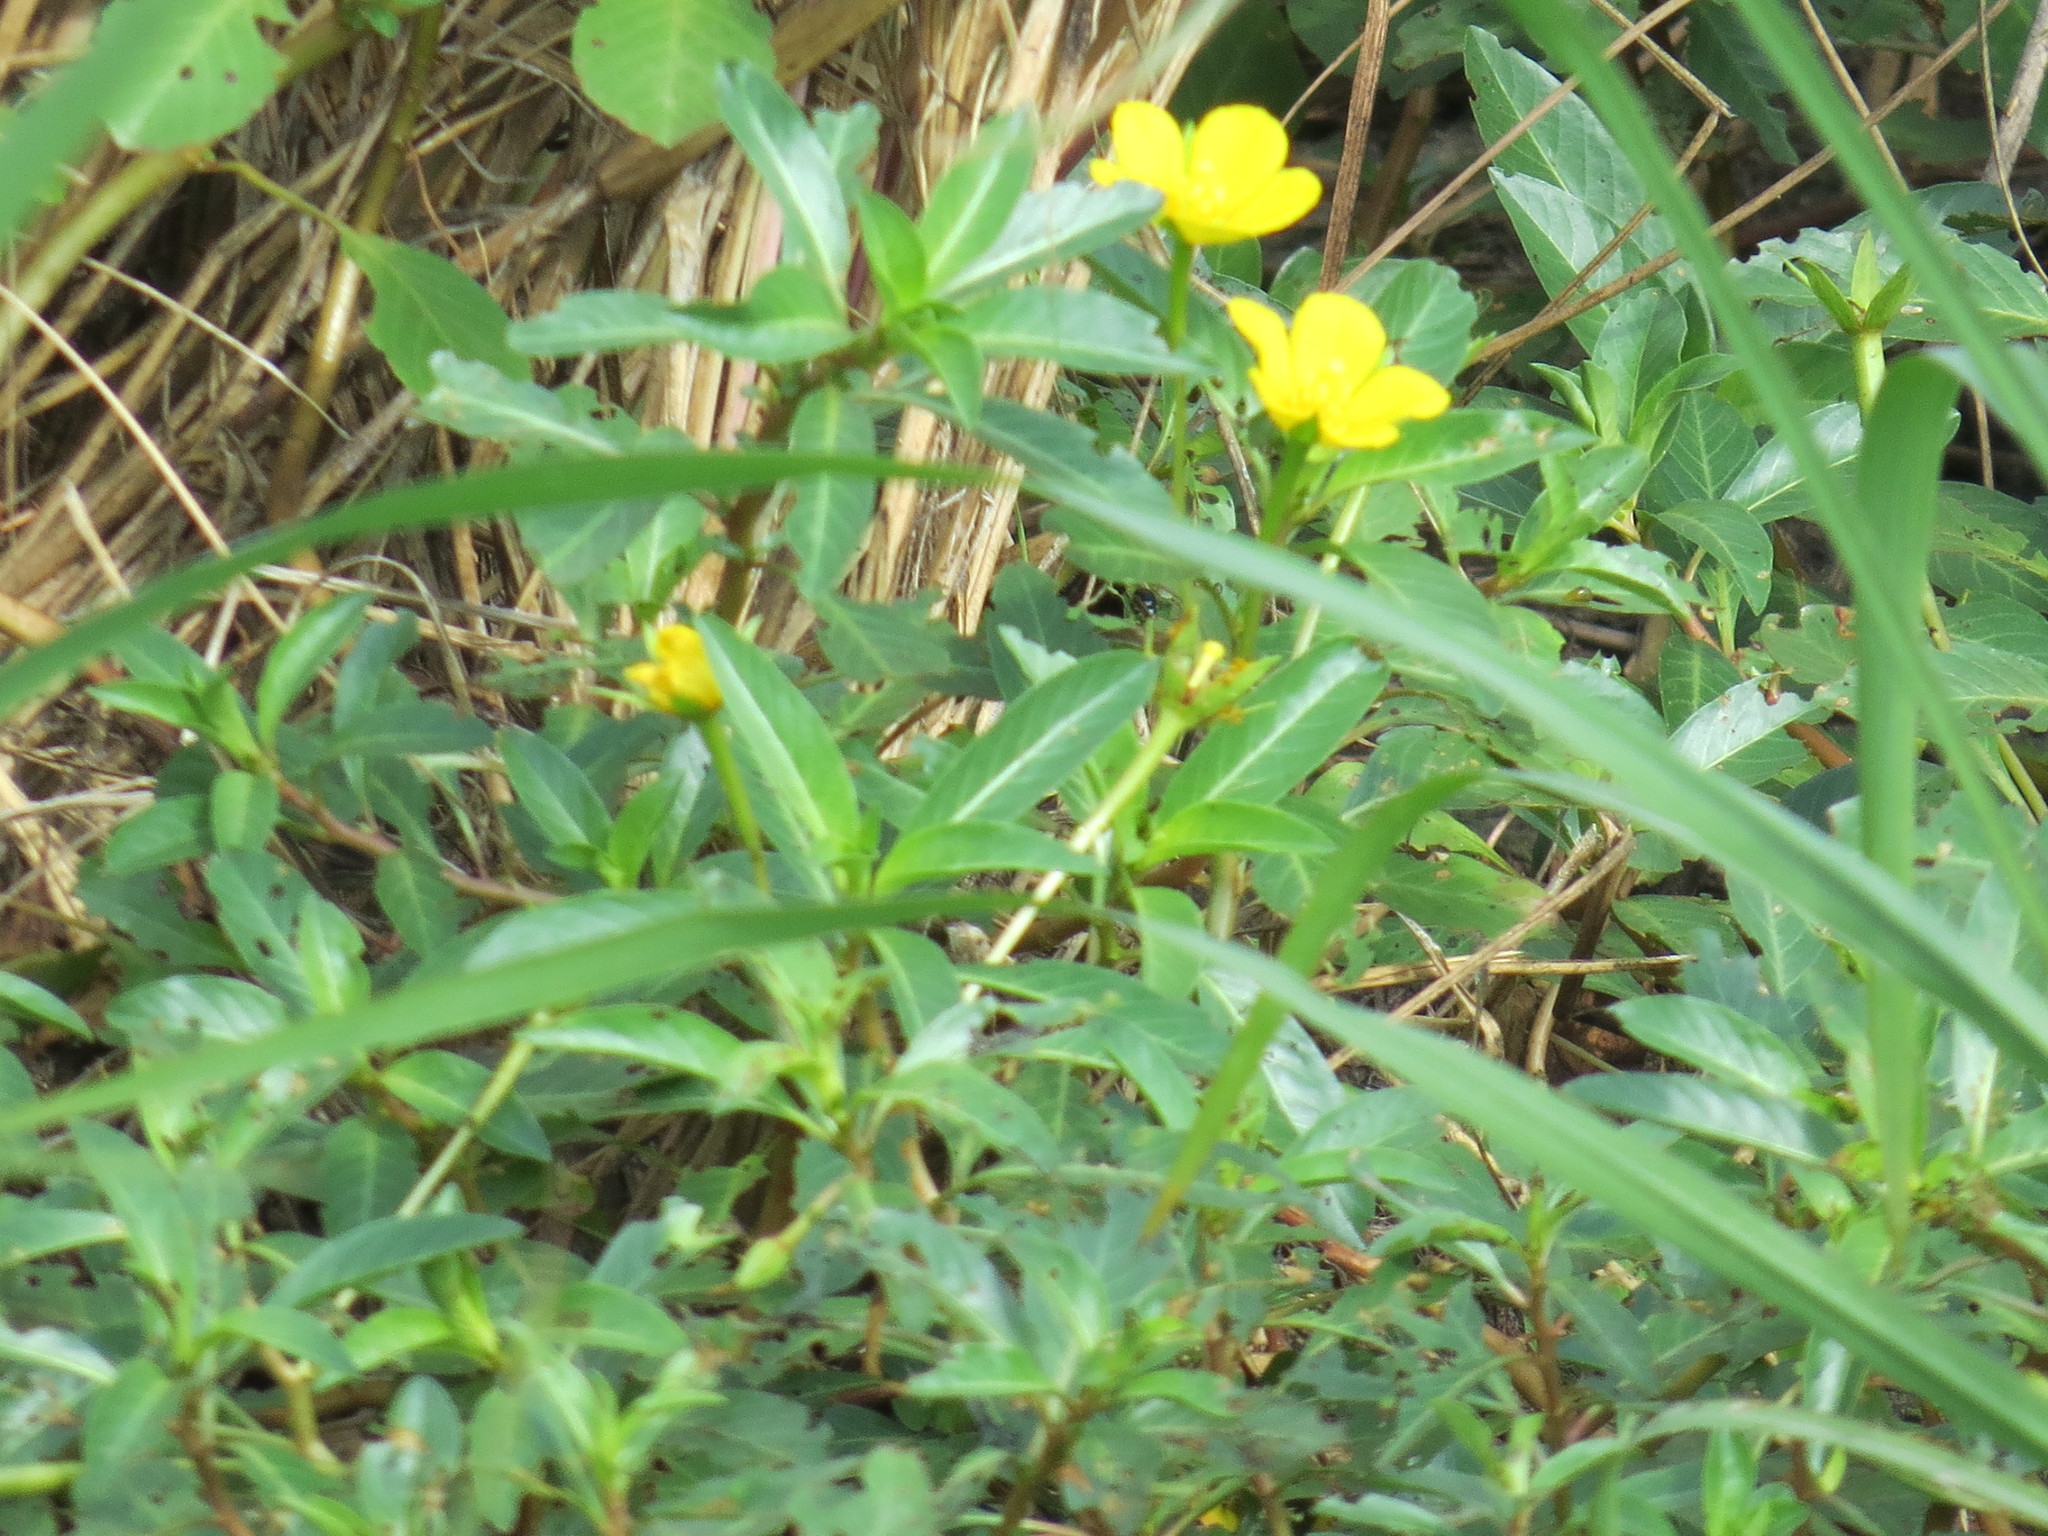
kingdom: Plantae
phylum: Tracheophyta
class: Magnoliopsida
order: Myrtales
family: Onagraceae
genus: Ludwigia
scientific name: Ludwigia peploides
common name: Floating primrose-willow
